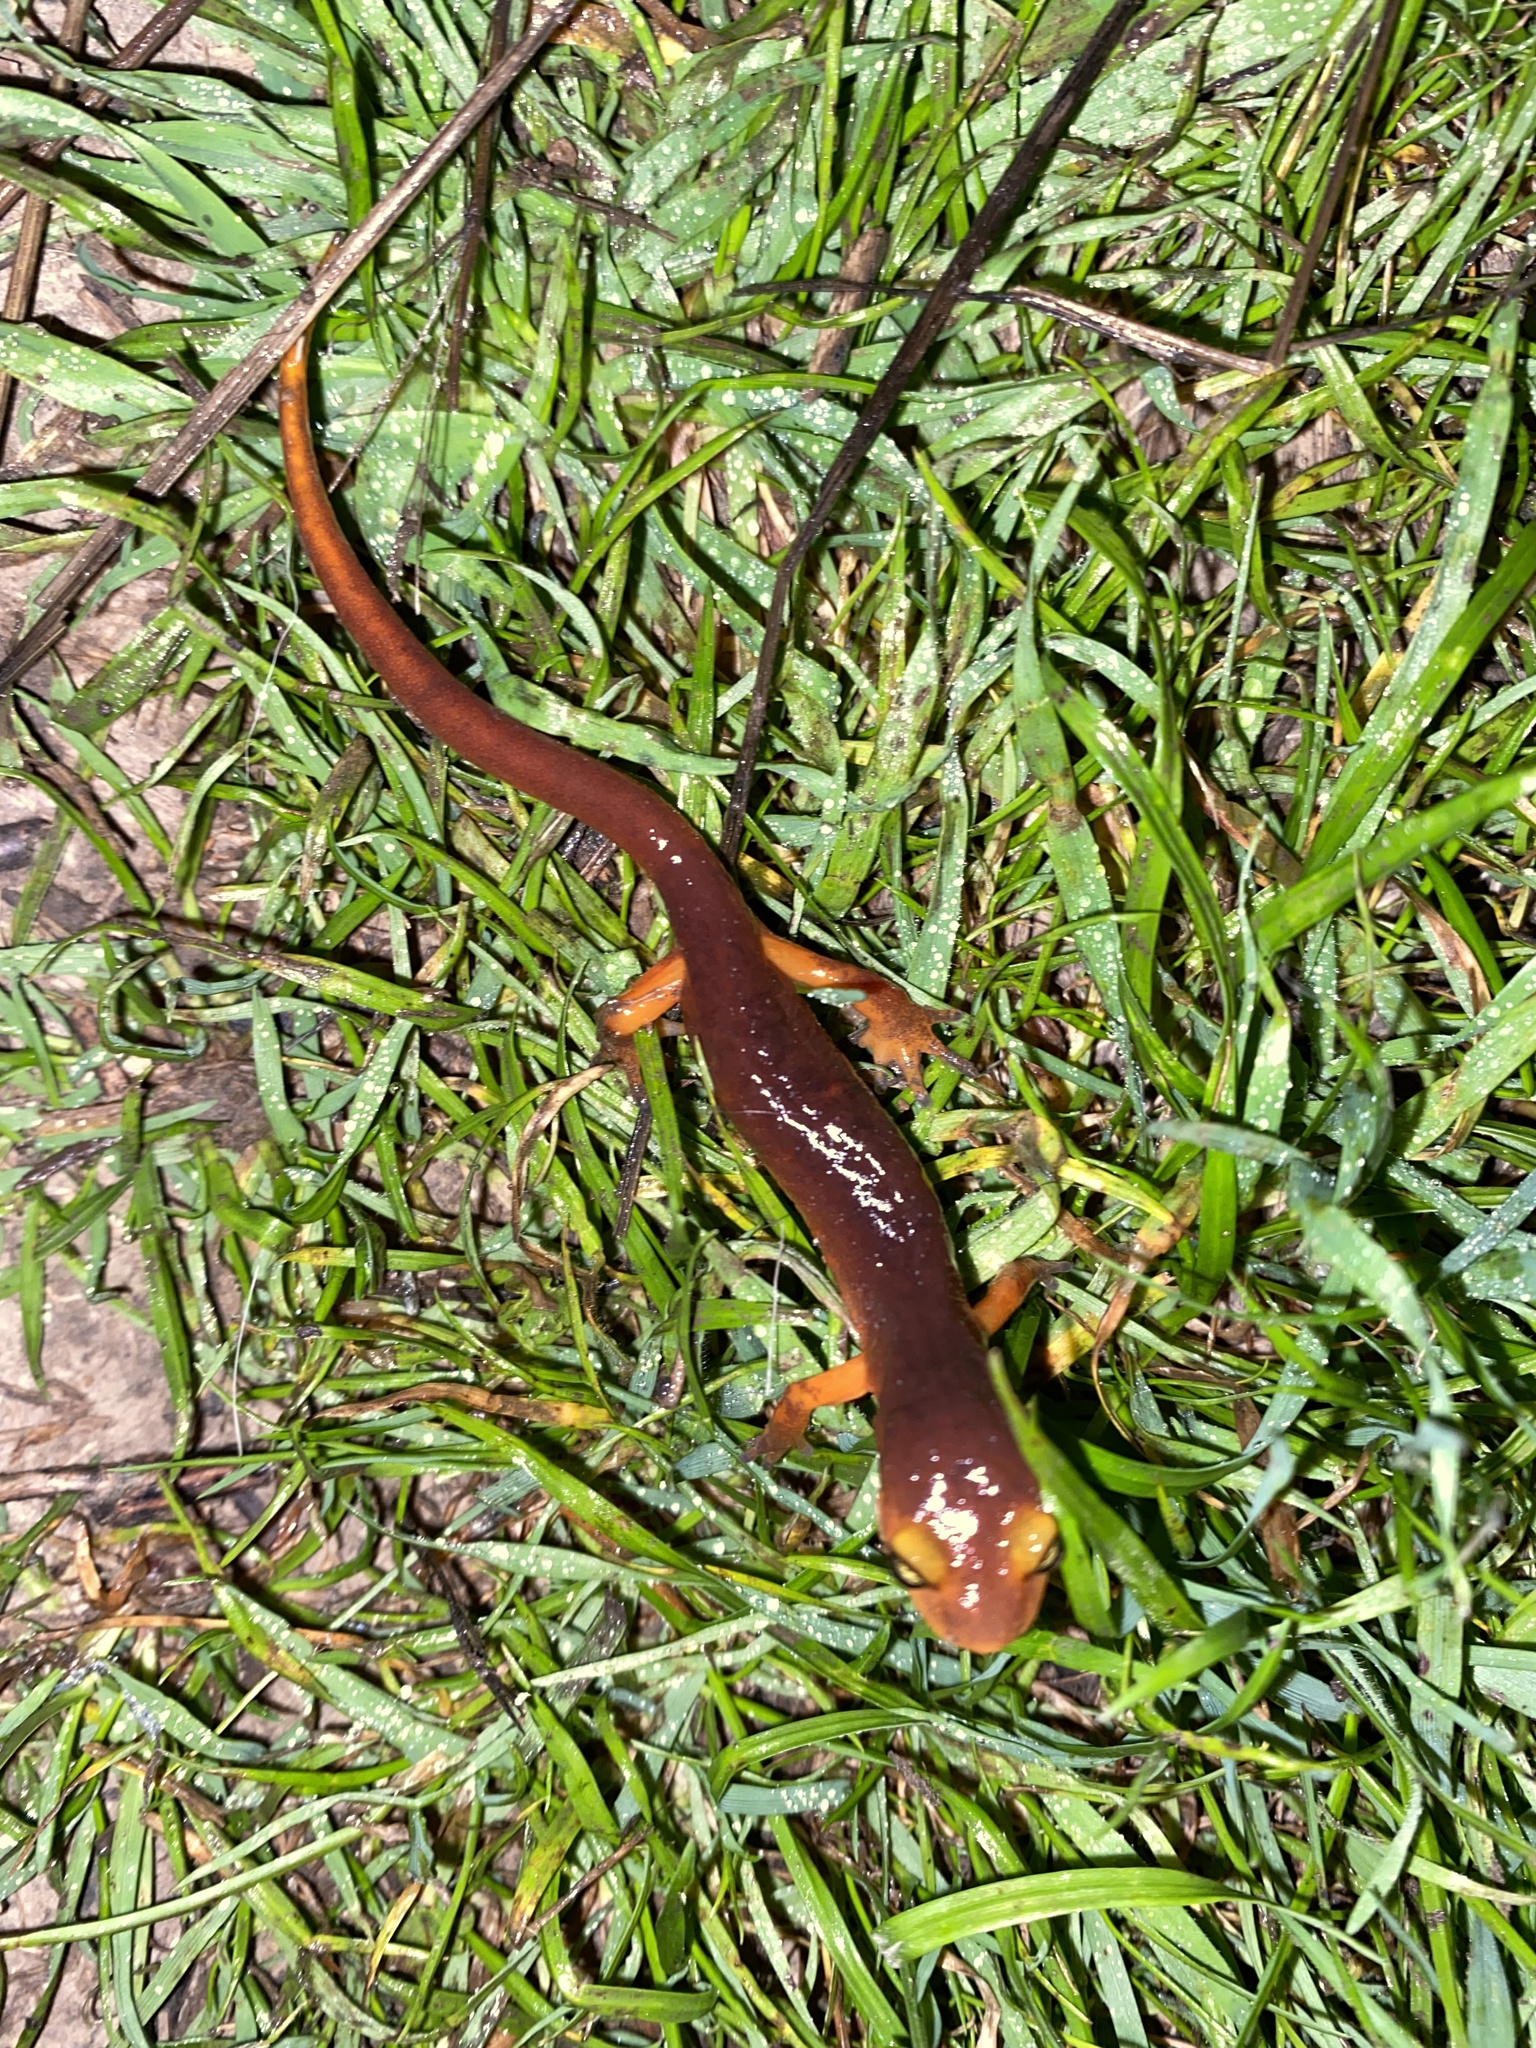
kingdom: Animalia
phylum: Chordata
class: Amphibia
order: Caudata
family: Plethodontidae
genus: Ensatina
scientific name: Ensatina eschscholtzii
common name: Ensatina
